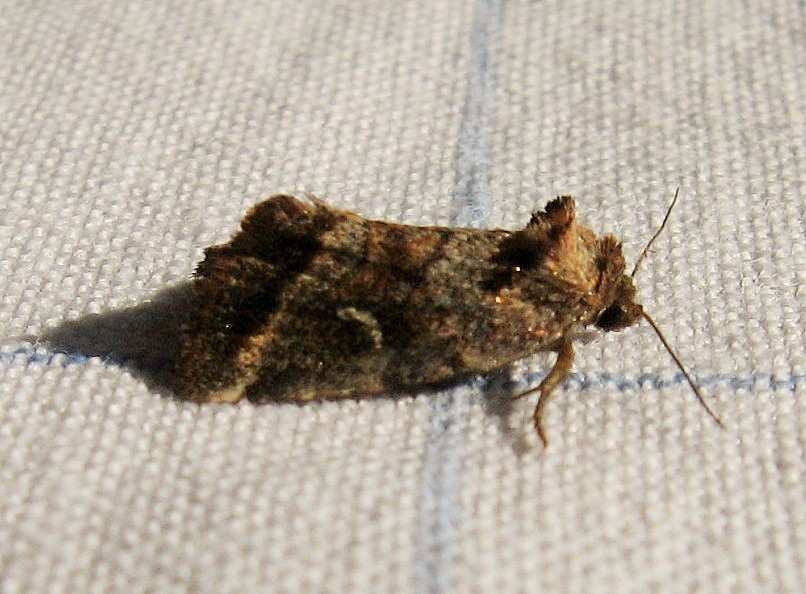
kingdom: Animalia
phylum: Arthropoda
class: Insecta
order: Lepidoptera
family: Noctuidae
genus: Photedes
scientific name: Photedes includens
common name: Included cordgrass borer moth
